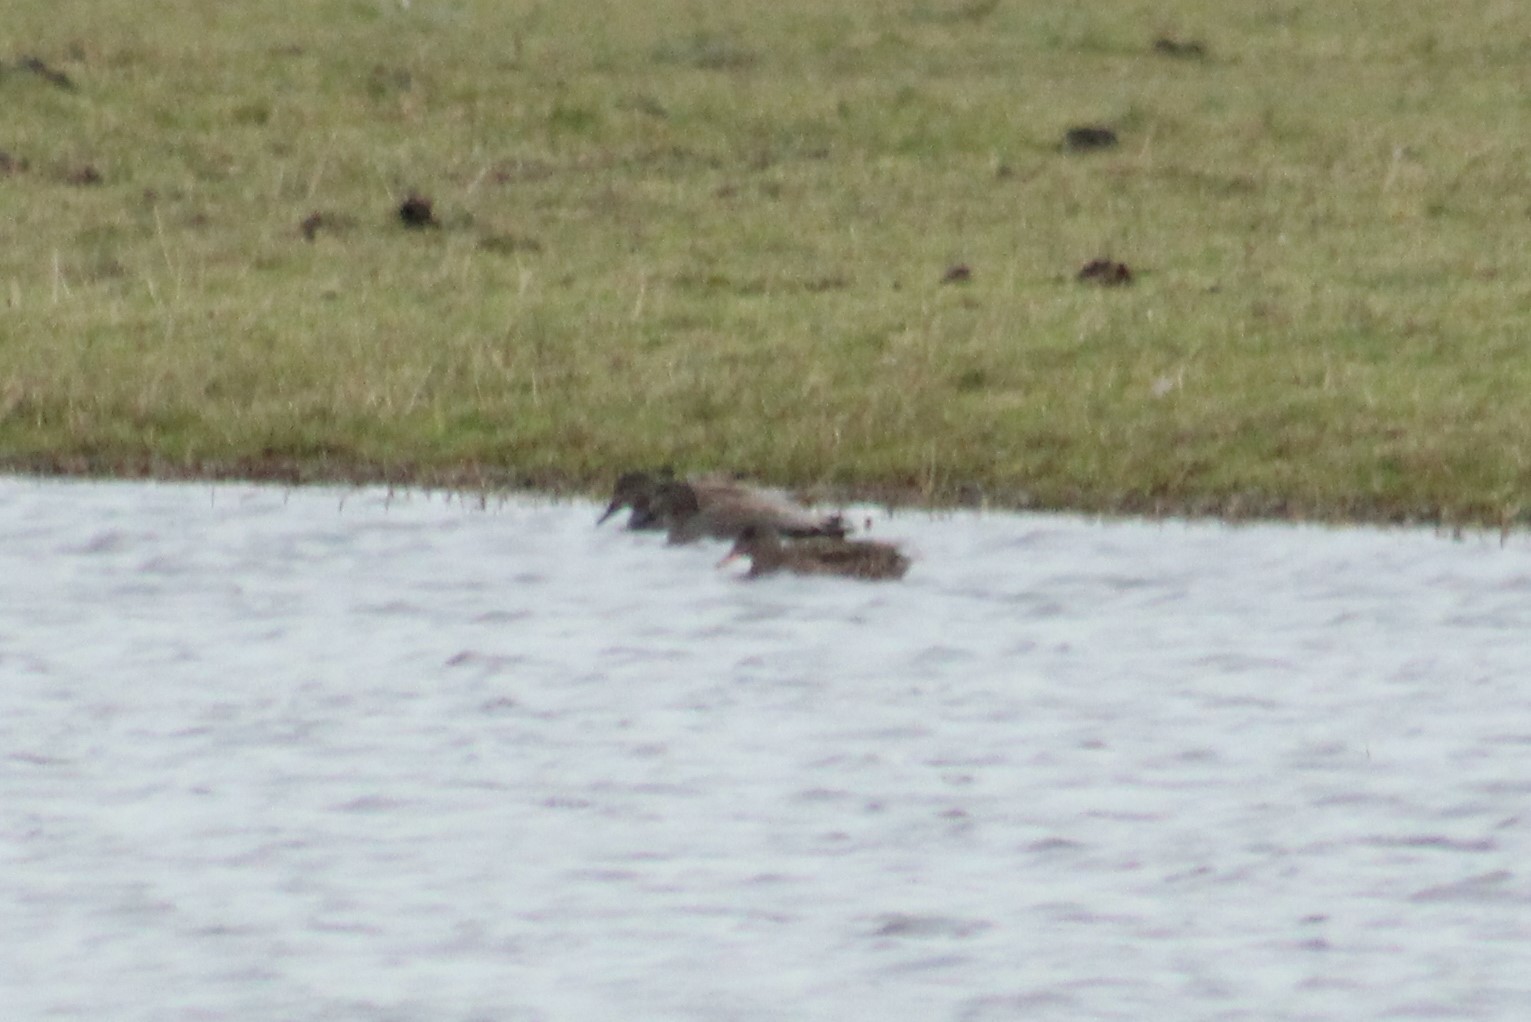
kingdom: Animalia
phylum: Chordata
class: Aves
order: Anseriformes
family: Anatidae
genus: Mareca
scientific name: Mareca strepera
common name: Gadwall
